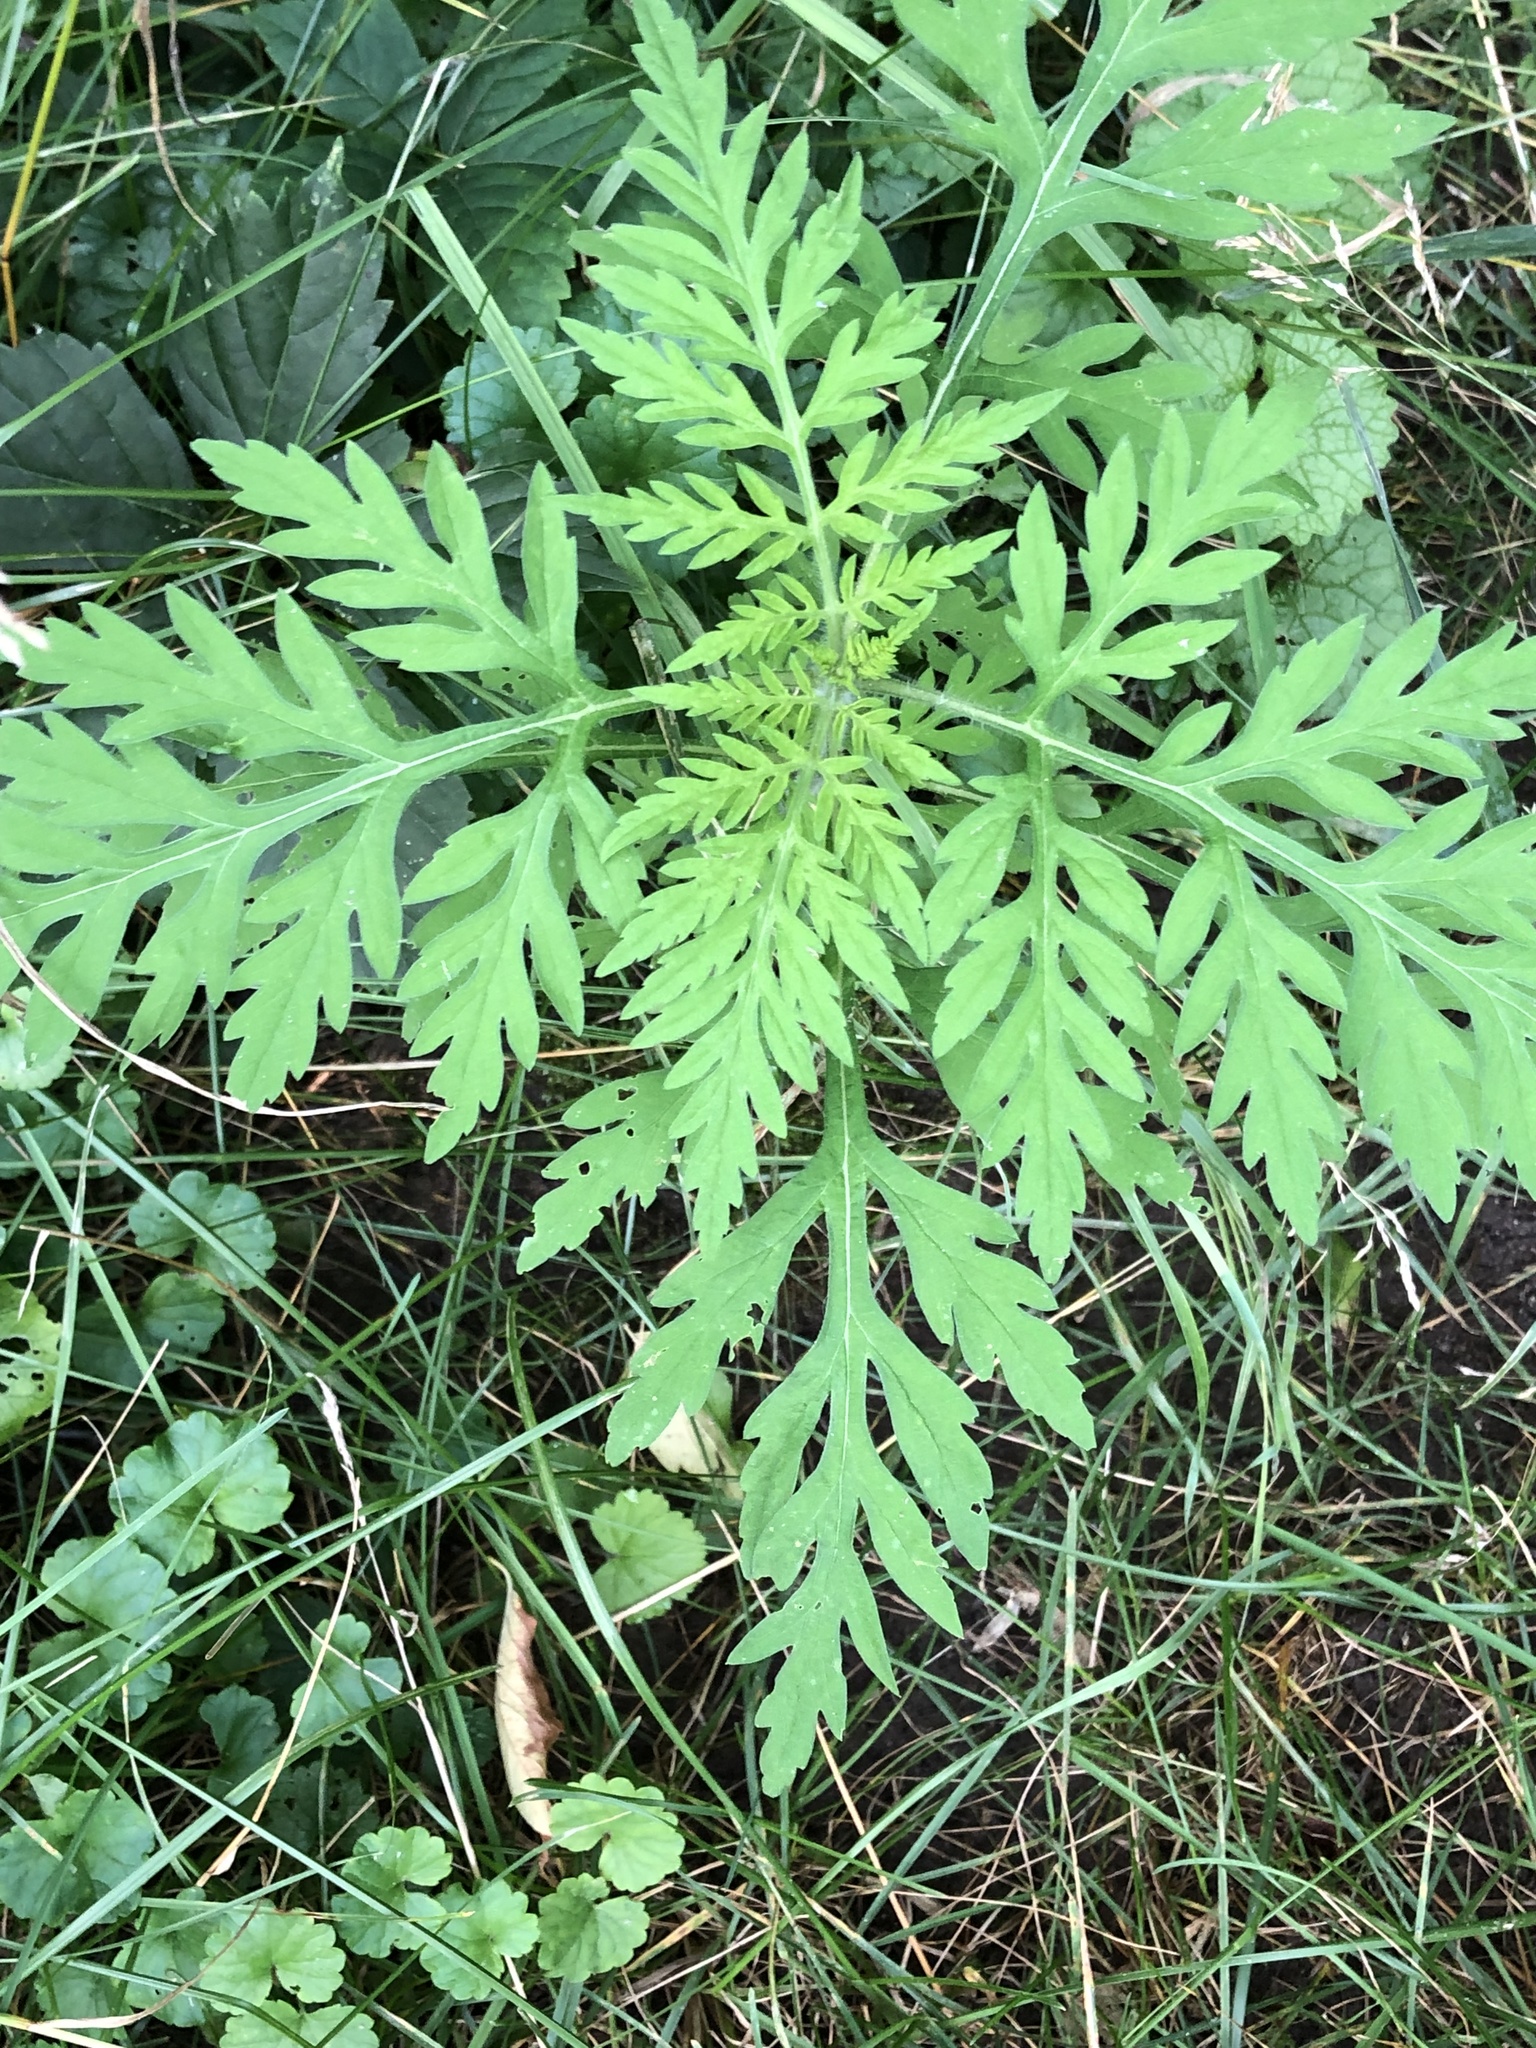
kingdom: Plantae
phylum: Tracheophyta
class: Magnoliopsida
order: Asterales
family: Asteraceae
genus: Ambrosia
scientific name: Ambrosia artemisiifolia
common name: Annual ragweed
